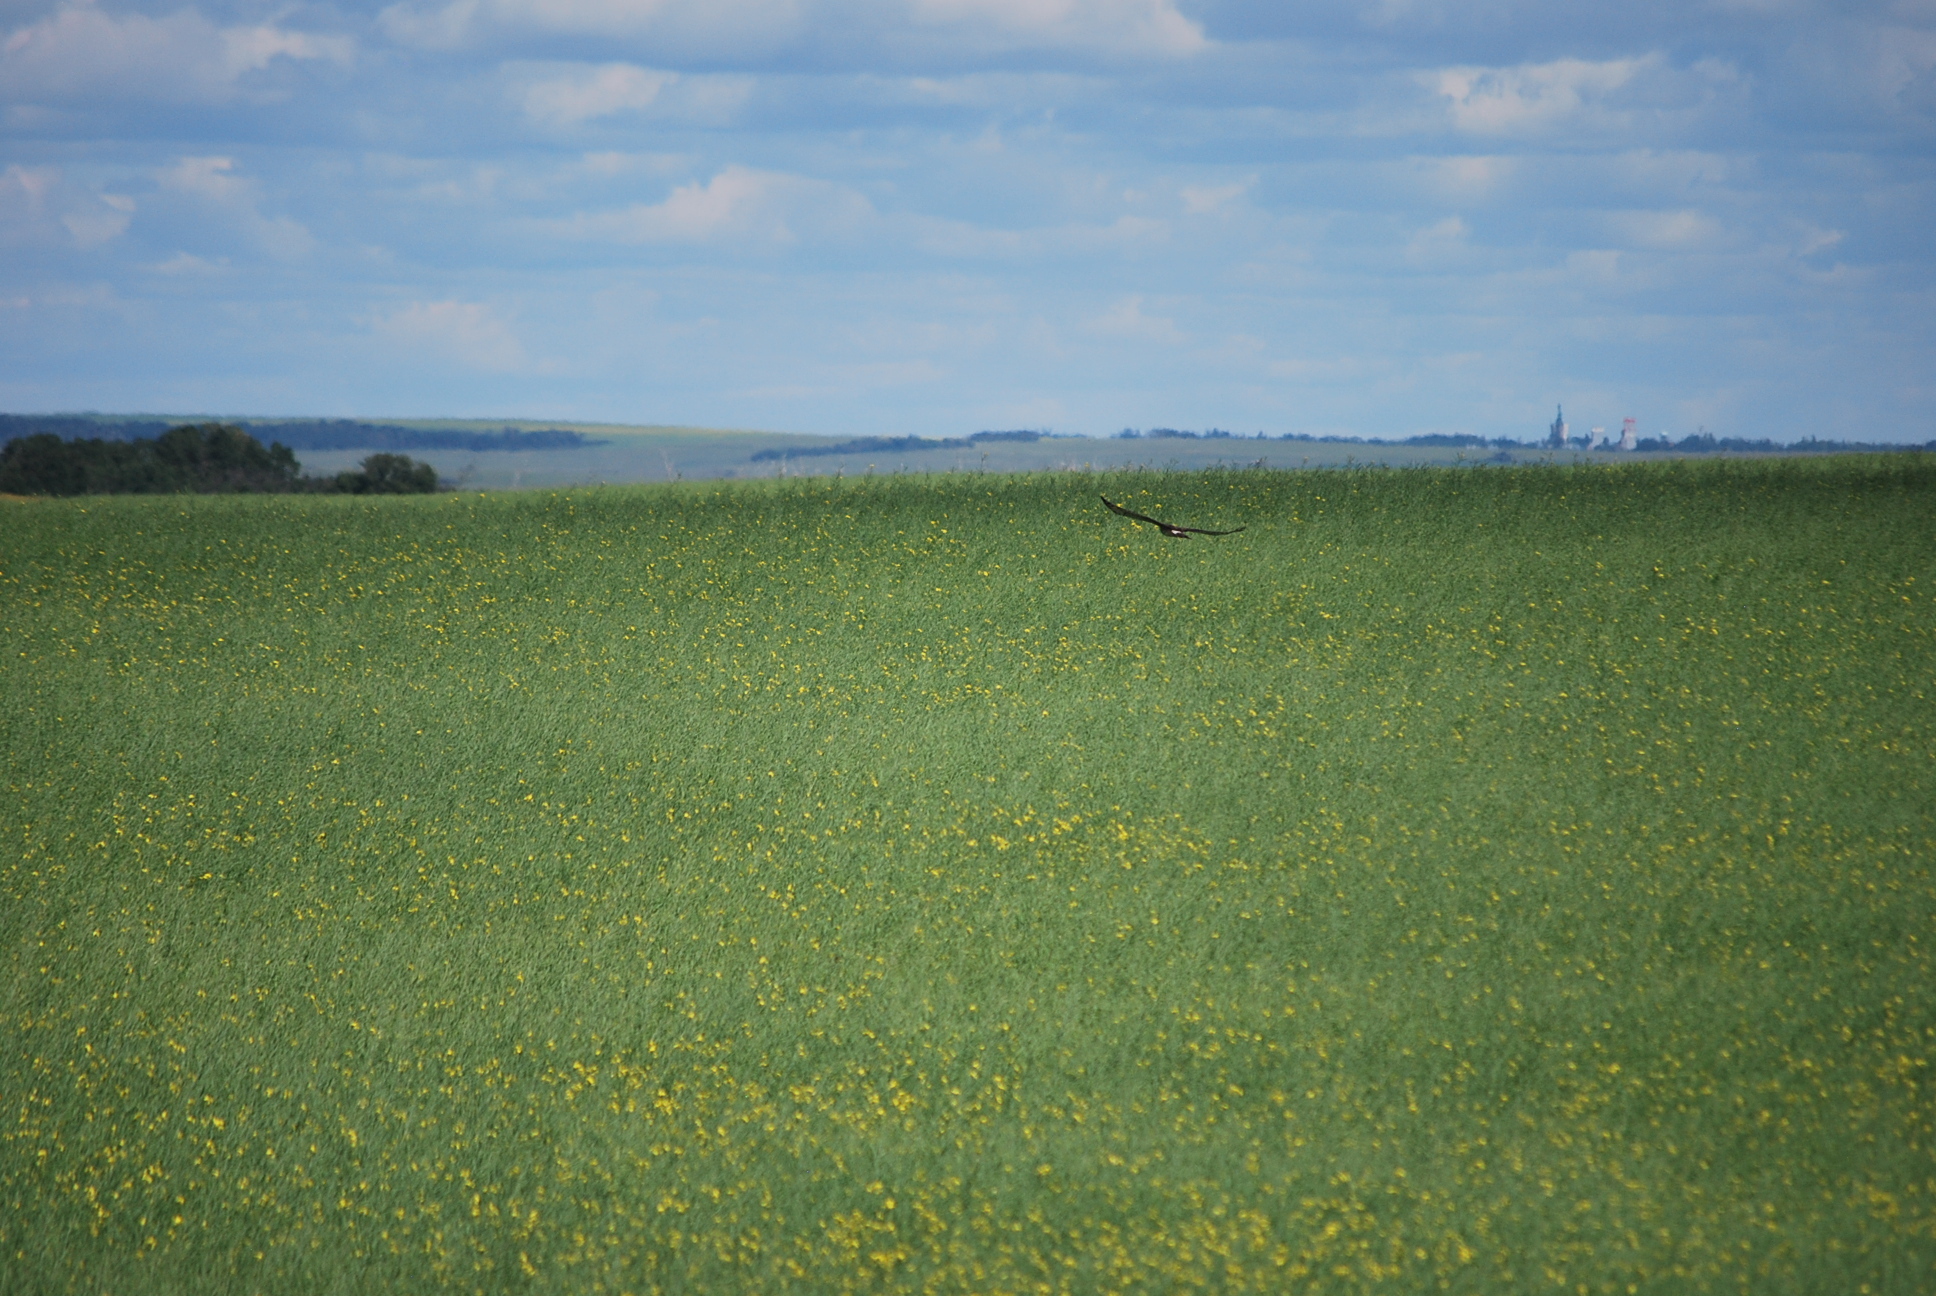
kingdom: Animalia
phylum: Chordata
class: Aves
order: Accipitriformes
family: Accipitridae
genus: Circus
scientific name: Circus cyaneus
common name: Hen harrier
